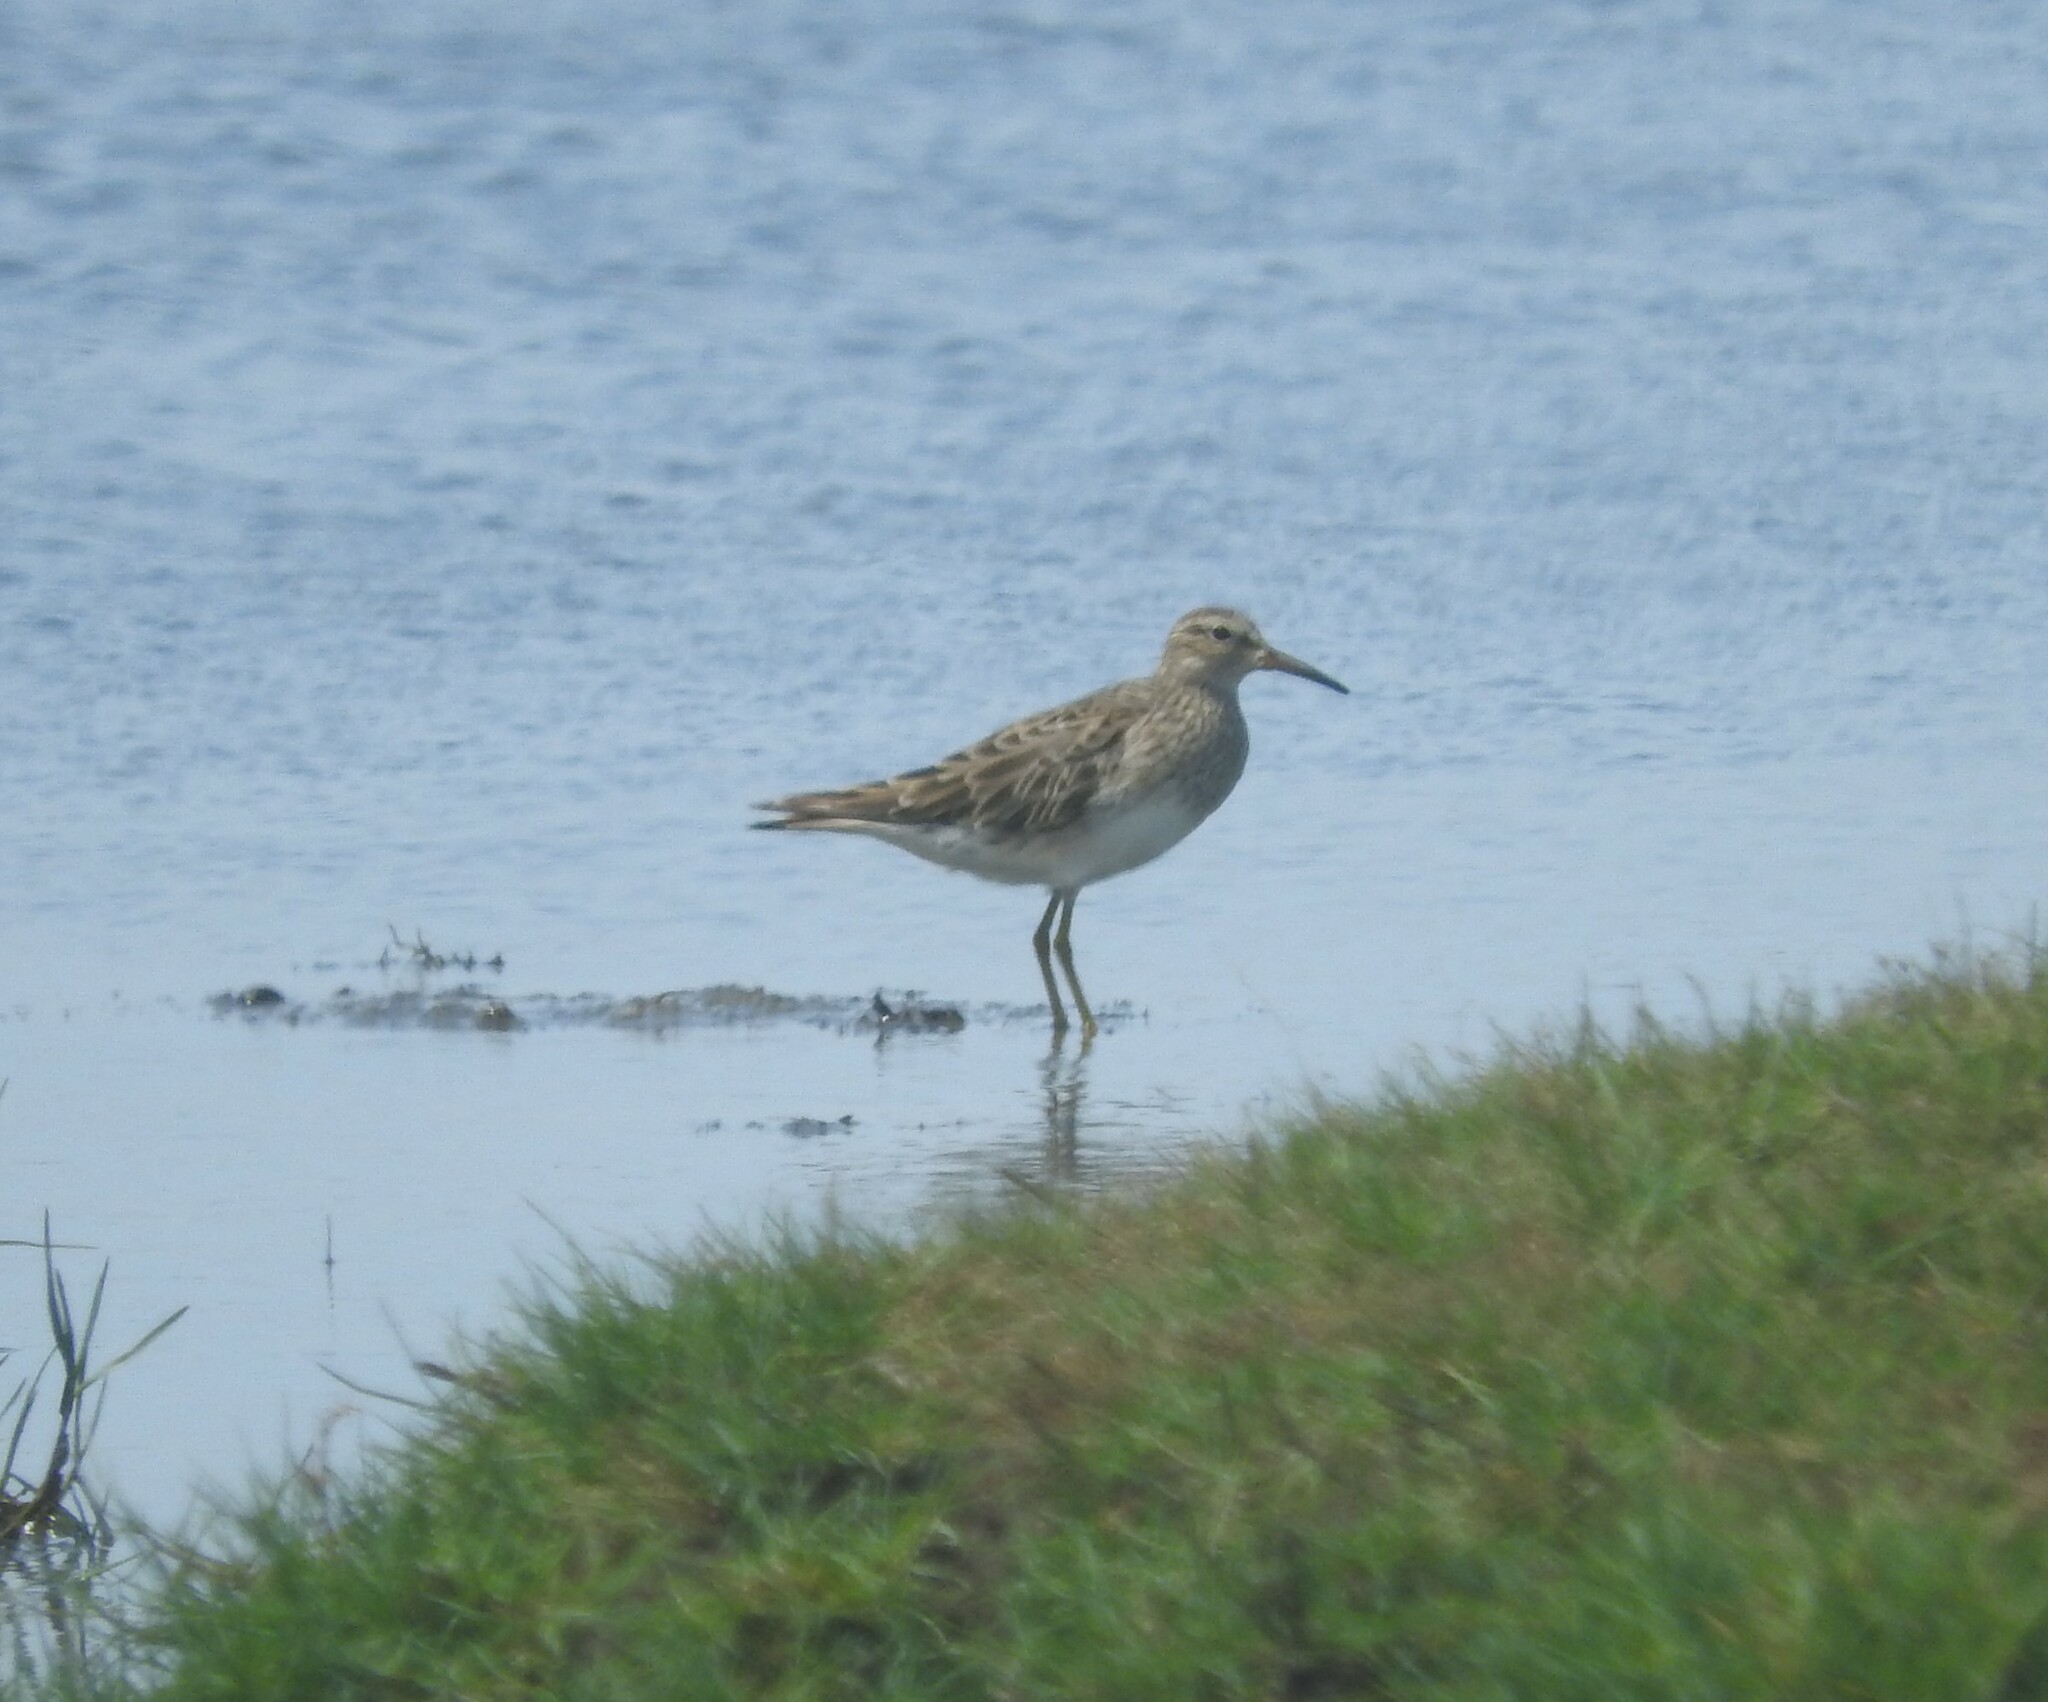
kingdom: Animalia
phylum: Chordata
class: Aves
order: Charadriiformes
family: Scolopacidae
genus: Calidris
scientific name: Calidris melanotos
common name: Pectoral sandpiper
